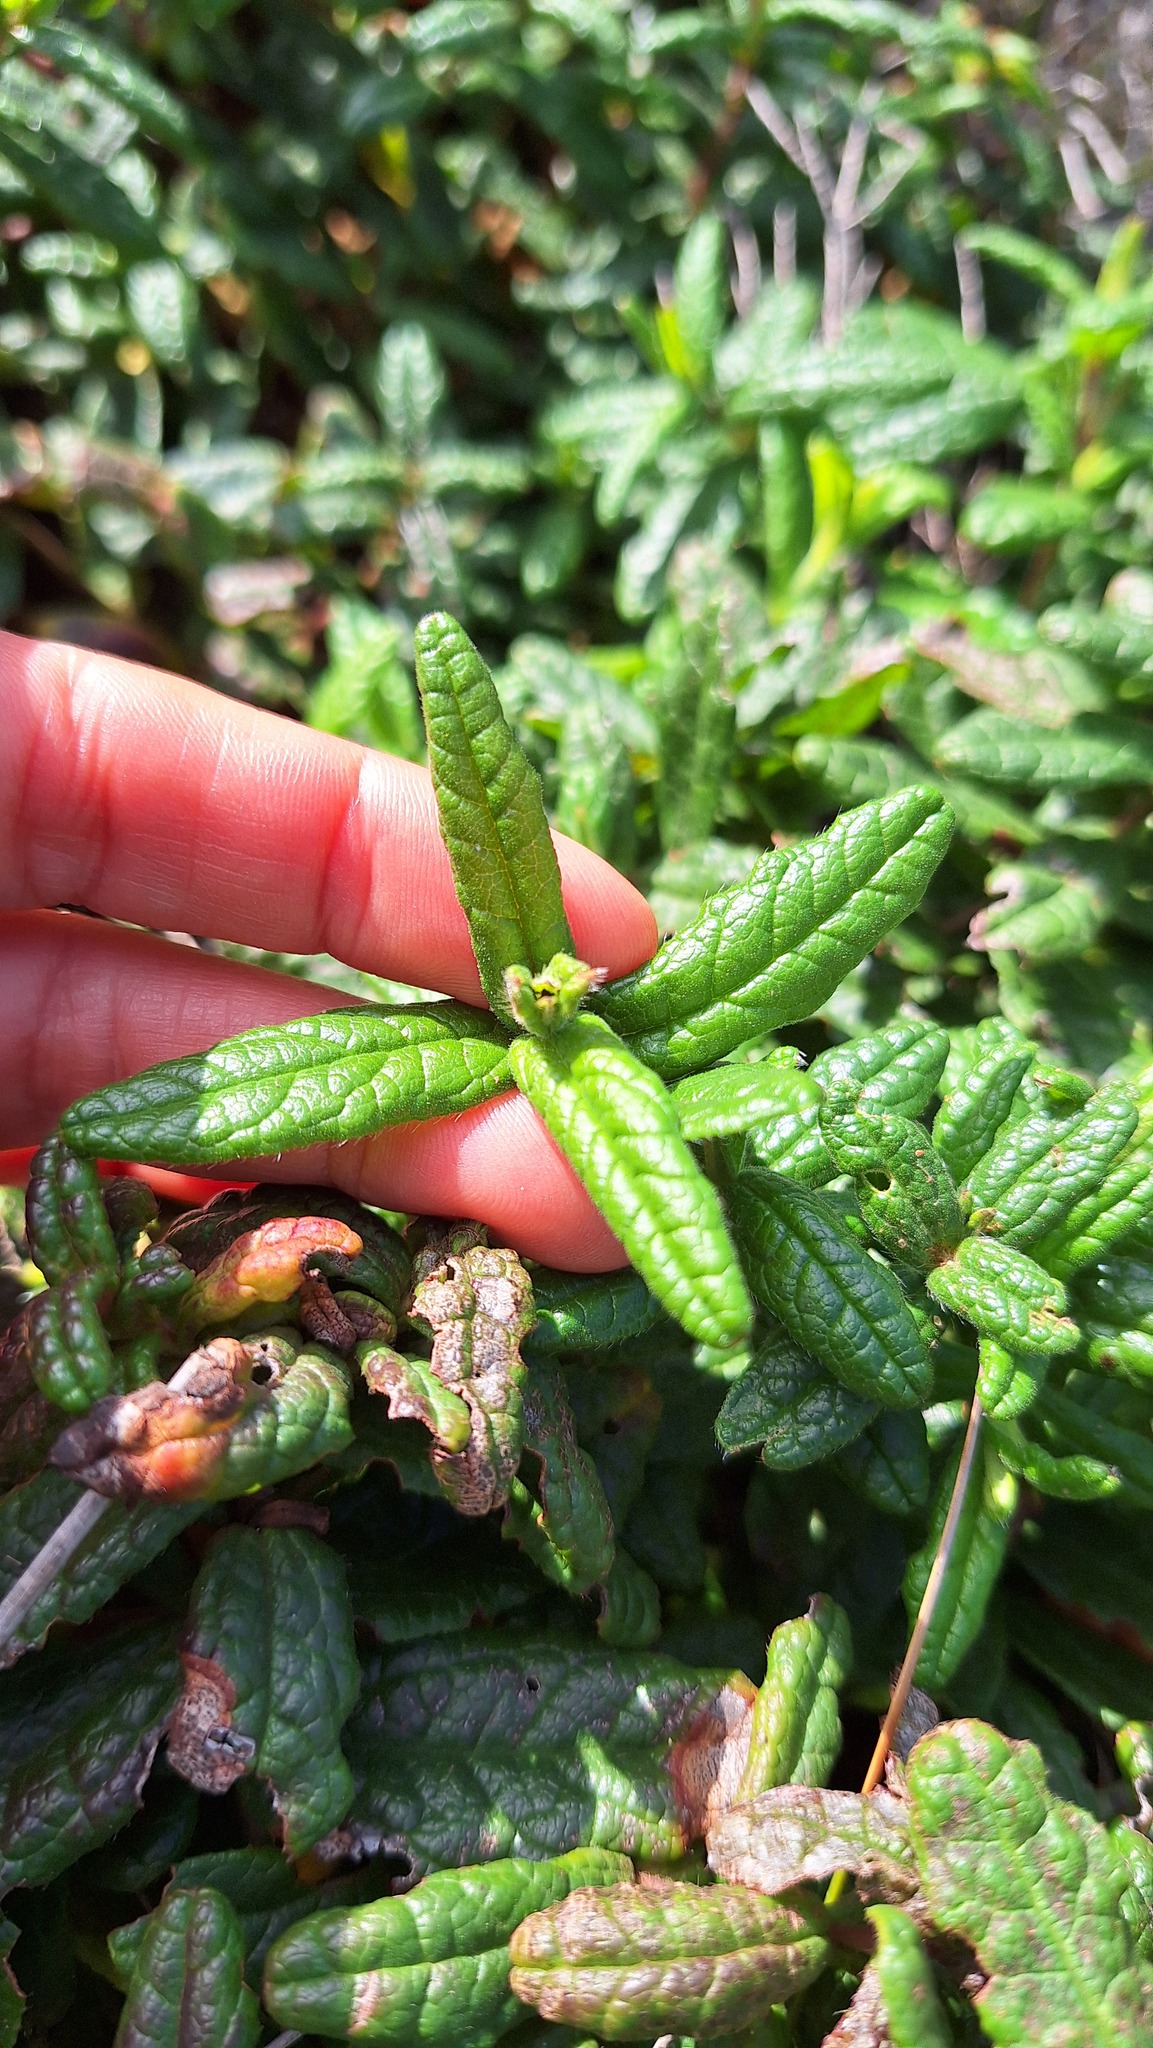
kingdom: Plantae
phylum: Tracheophyta
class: Magnoliopsida
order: Malvales
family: Cistaceae
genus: Cistus
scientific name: Cistus inflatus
